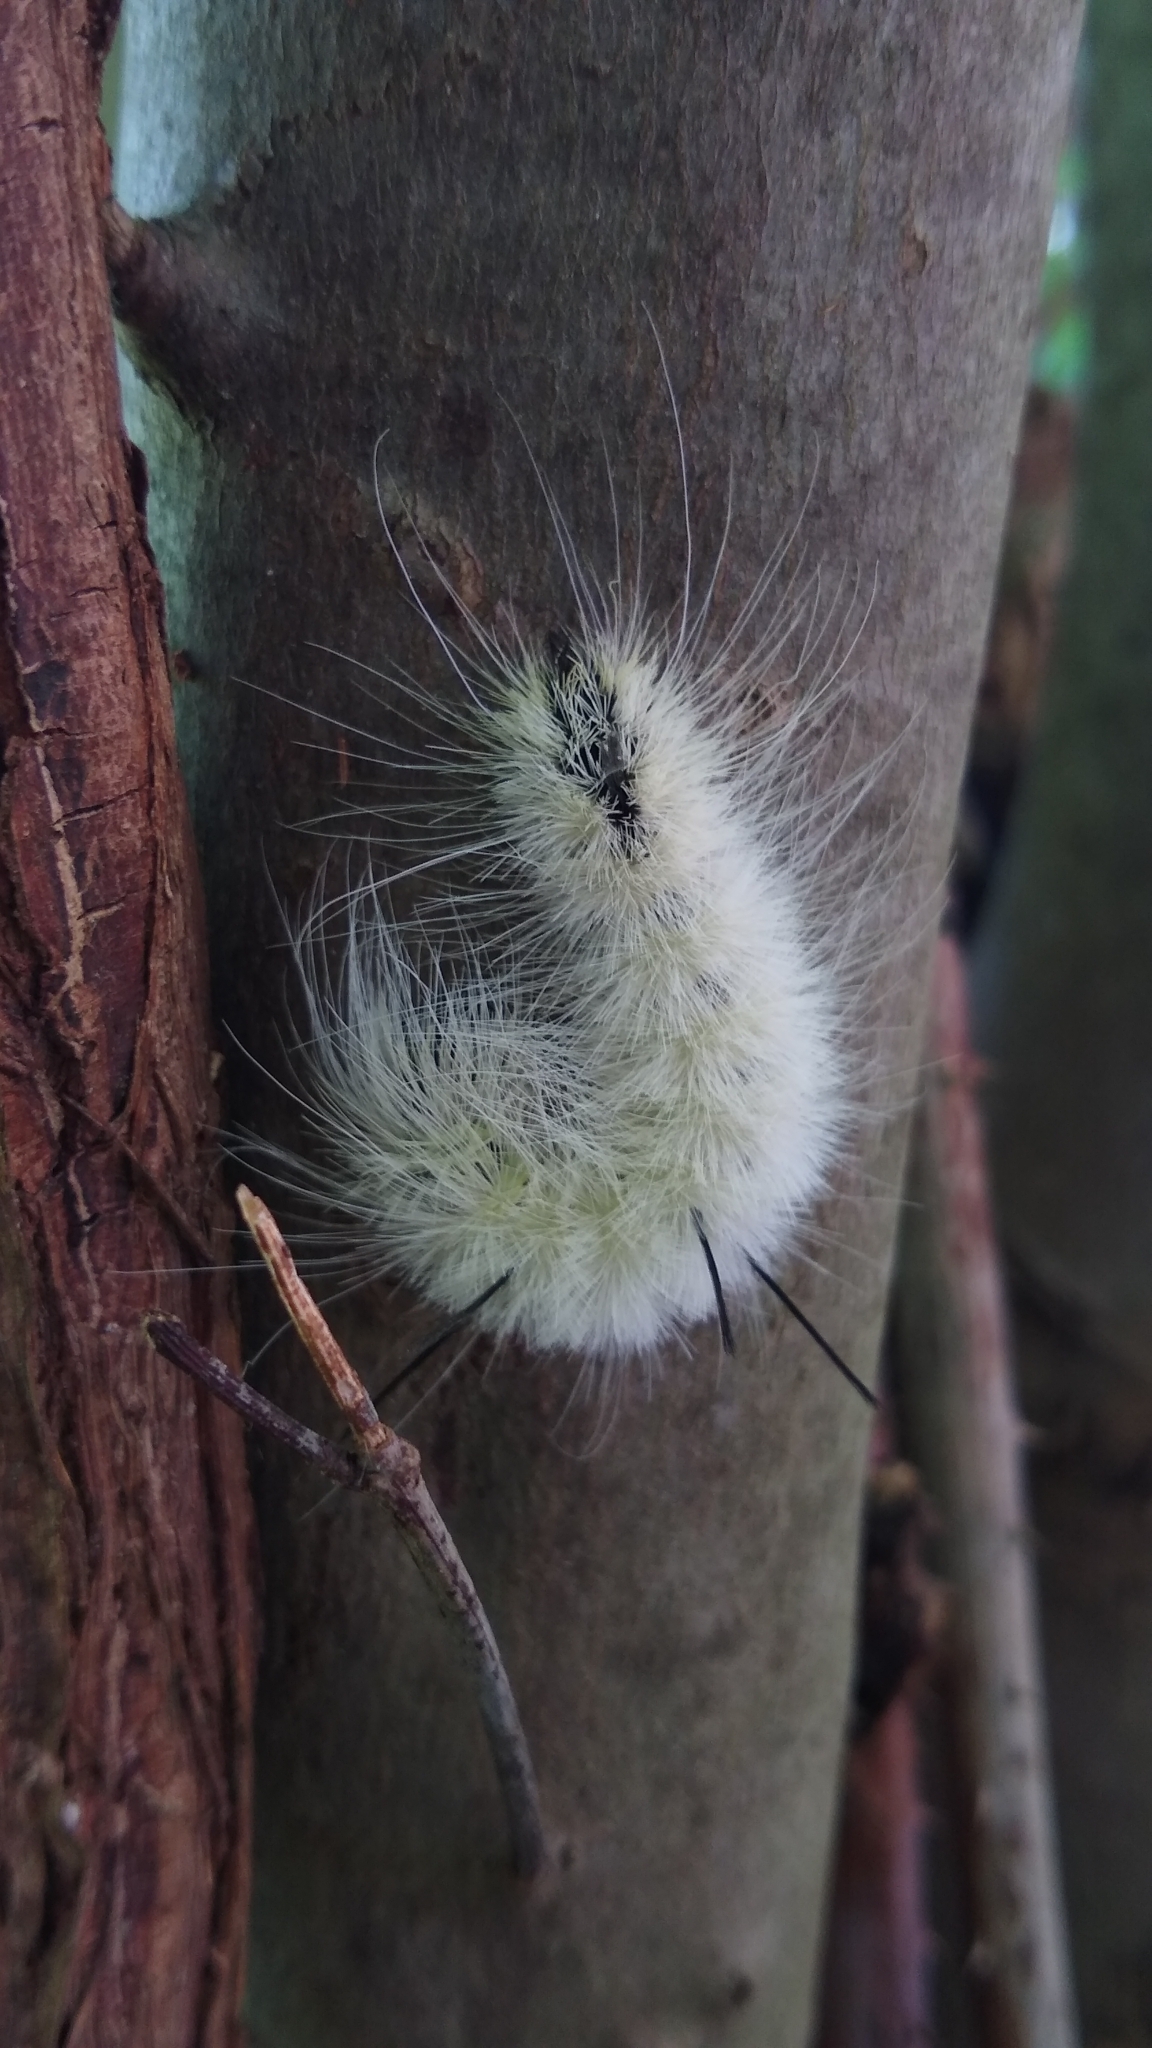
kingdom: Animalia
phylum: Arthropoda
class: Insecta
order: Lepidoptera
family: Noctuidae
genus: Acronicta
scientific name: Acronicta americana
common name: American dagger
